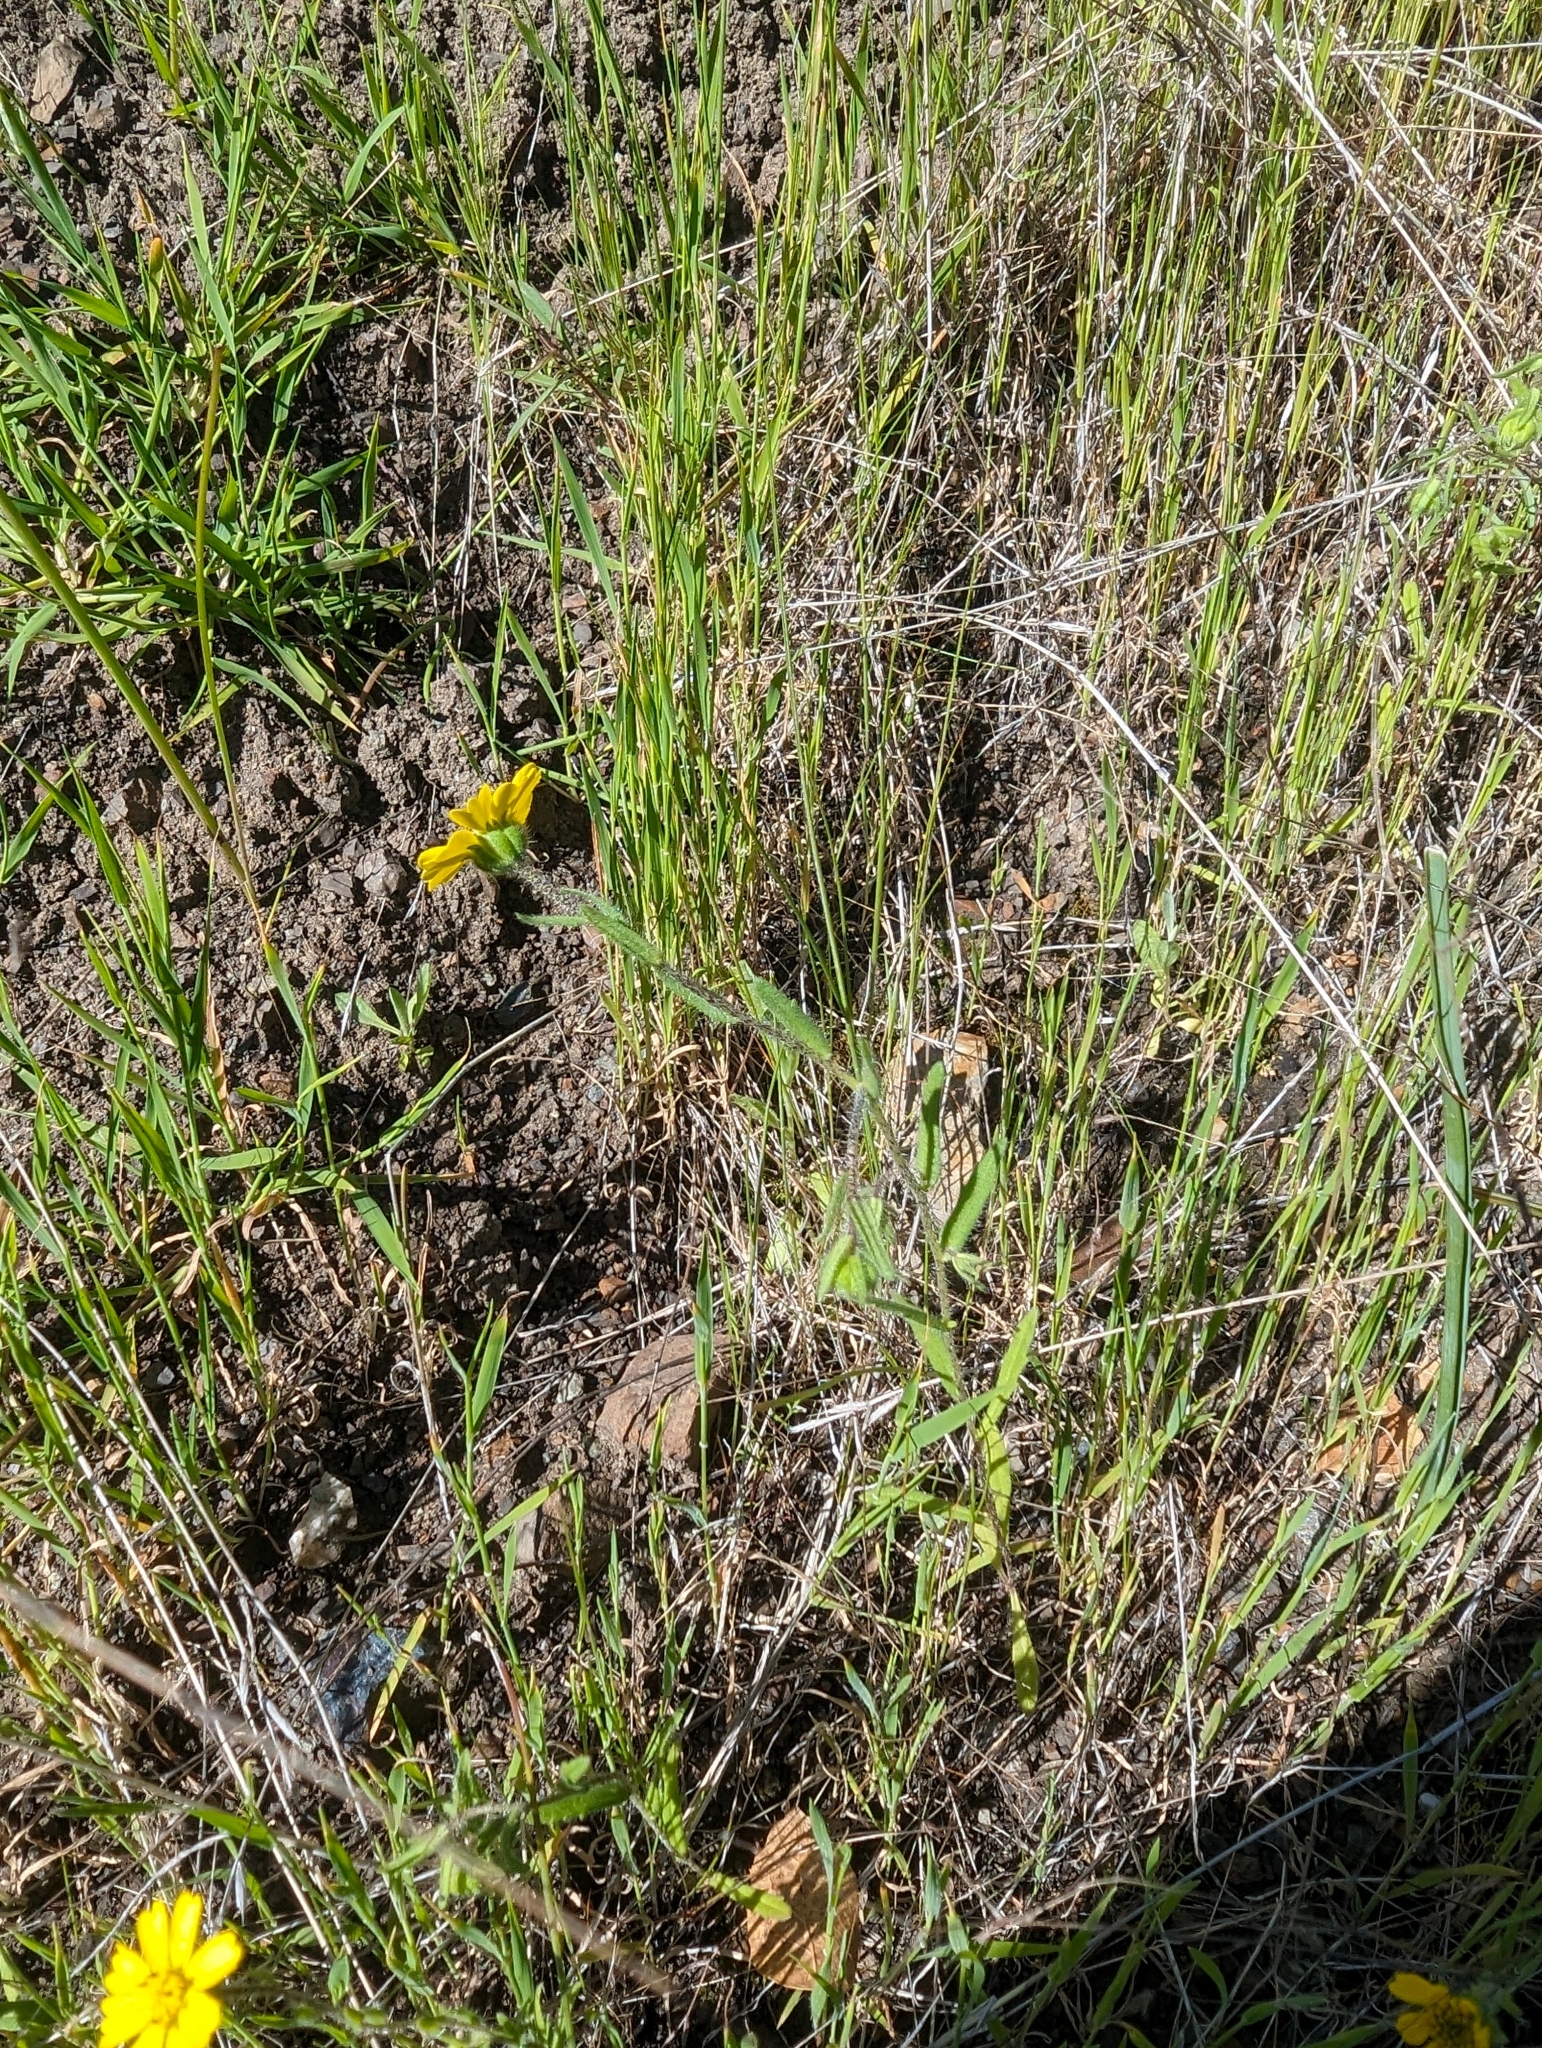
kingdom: Plantae
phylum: Tracheophyta
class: Magnoliopsida
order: Asterales
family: Asteraceae
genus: Layia
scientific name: Layia gaillardioides
